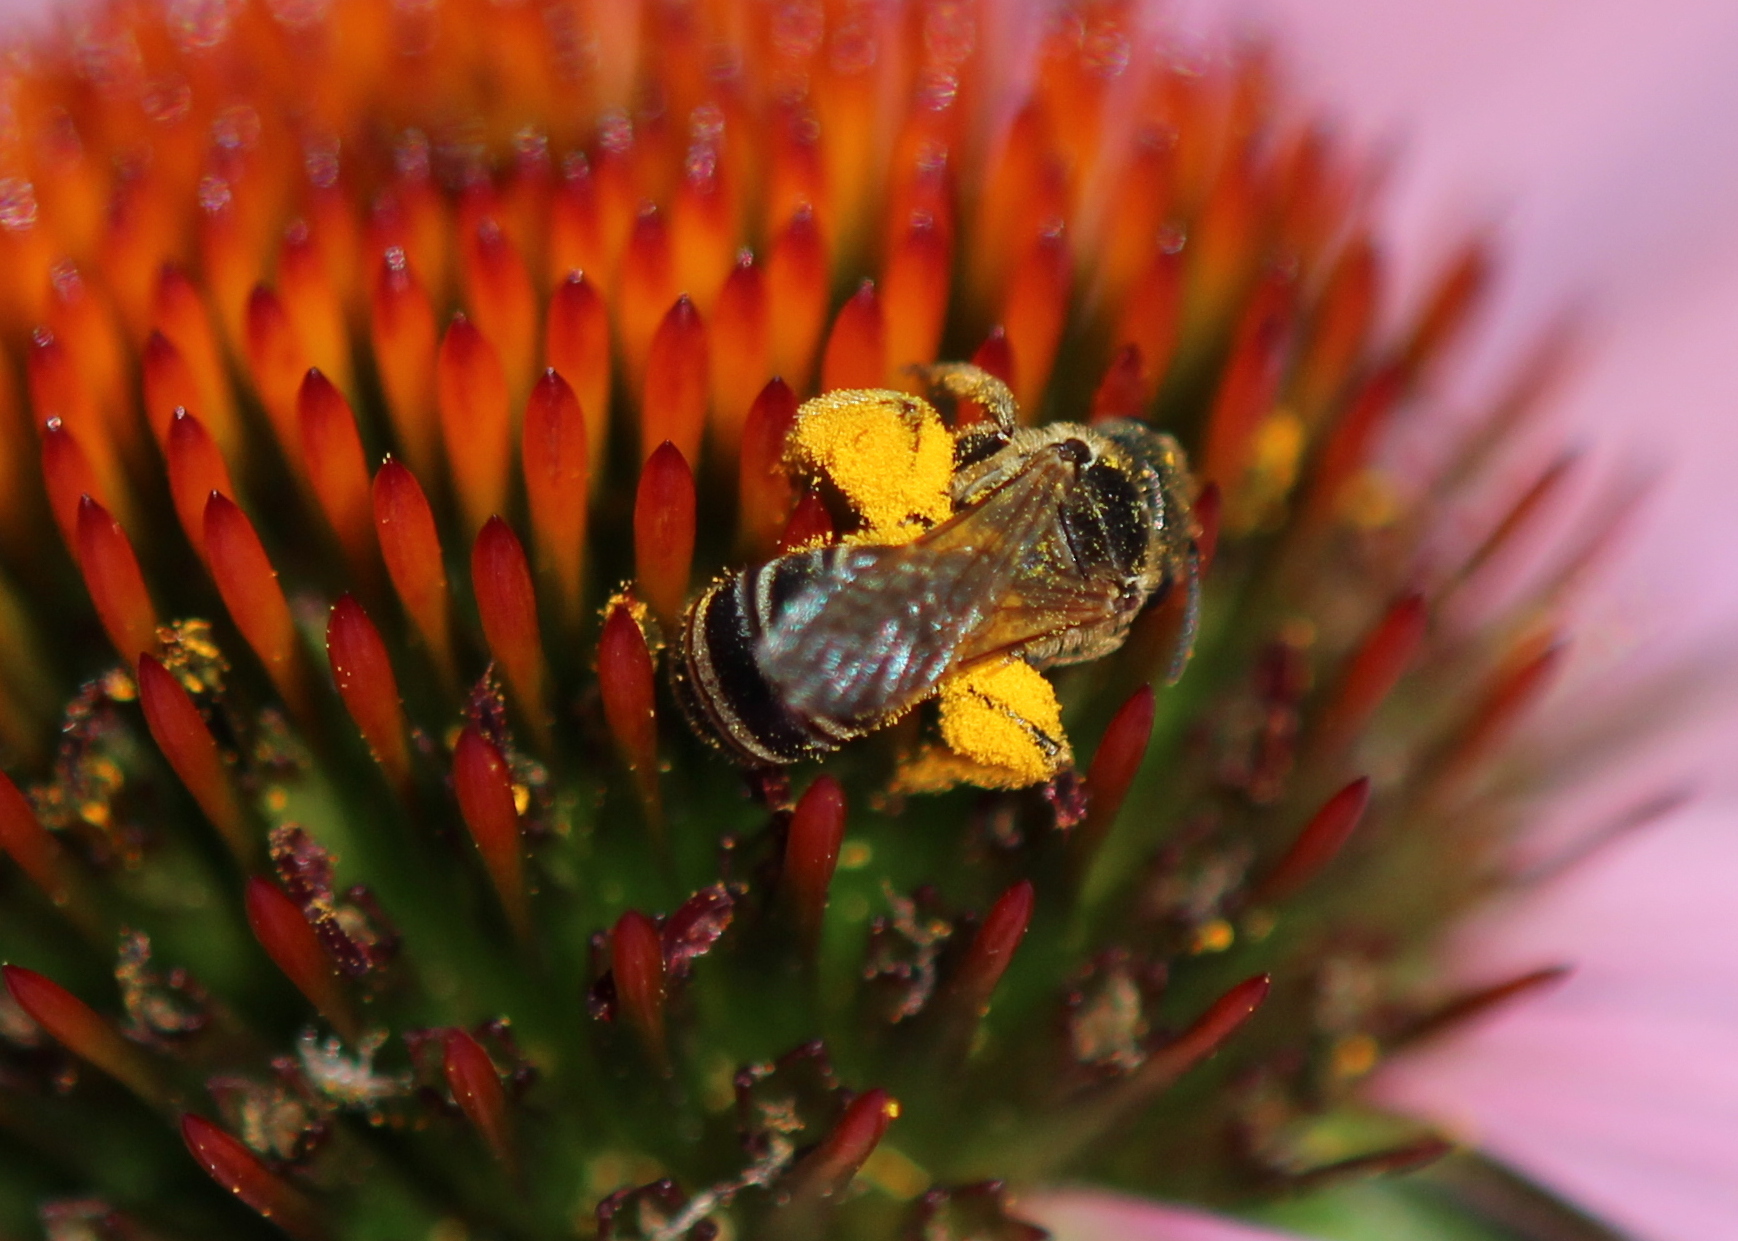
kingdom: Animalia
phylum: Arthropoda
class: Insecta
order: Hymenoptera
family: Halictidae
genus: Halictus
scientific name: Halictus ligatus
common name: Ligated furrow bee
